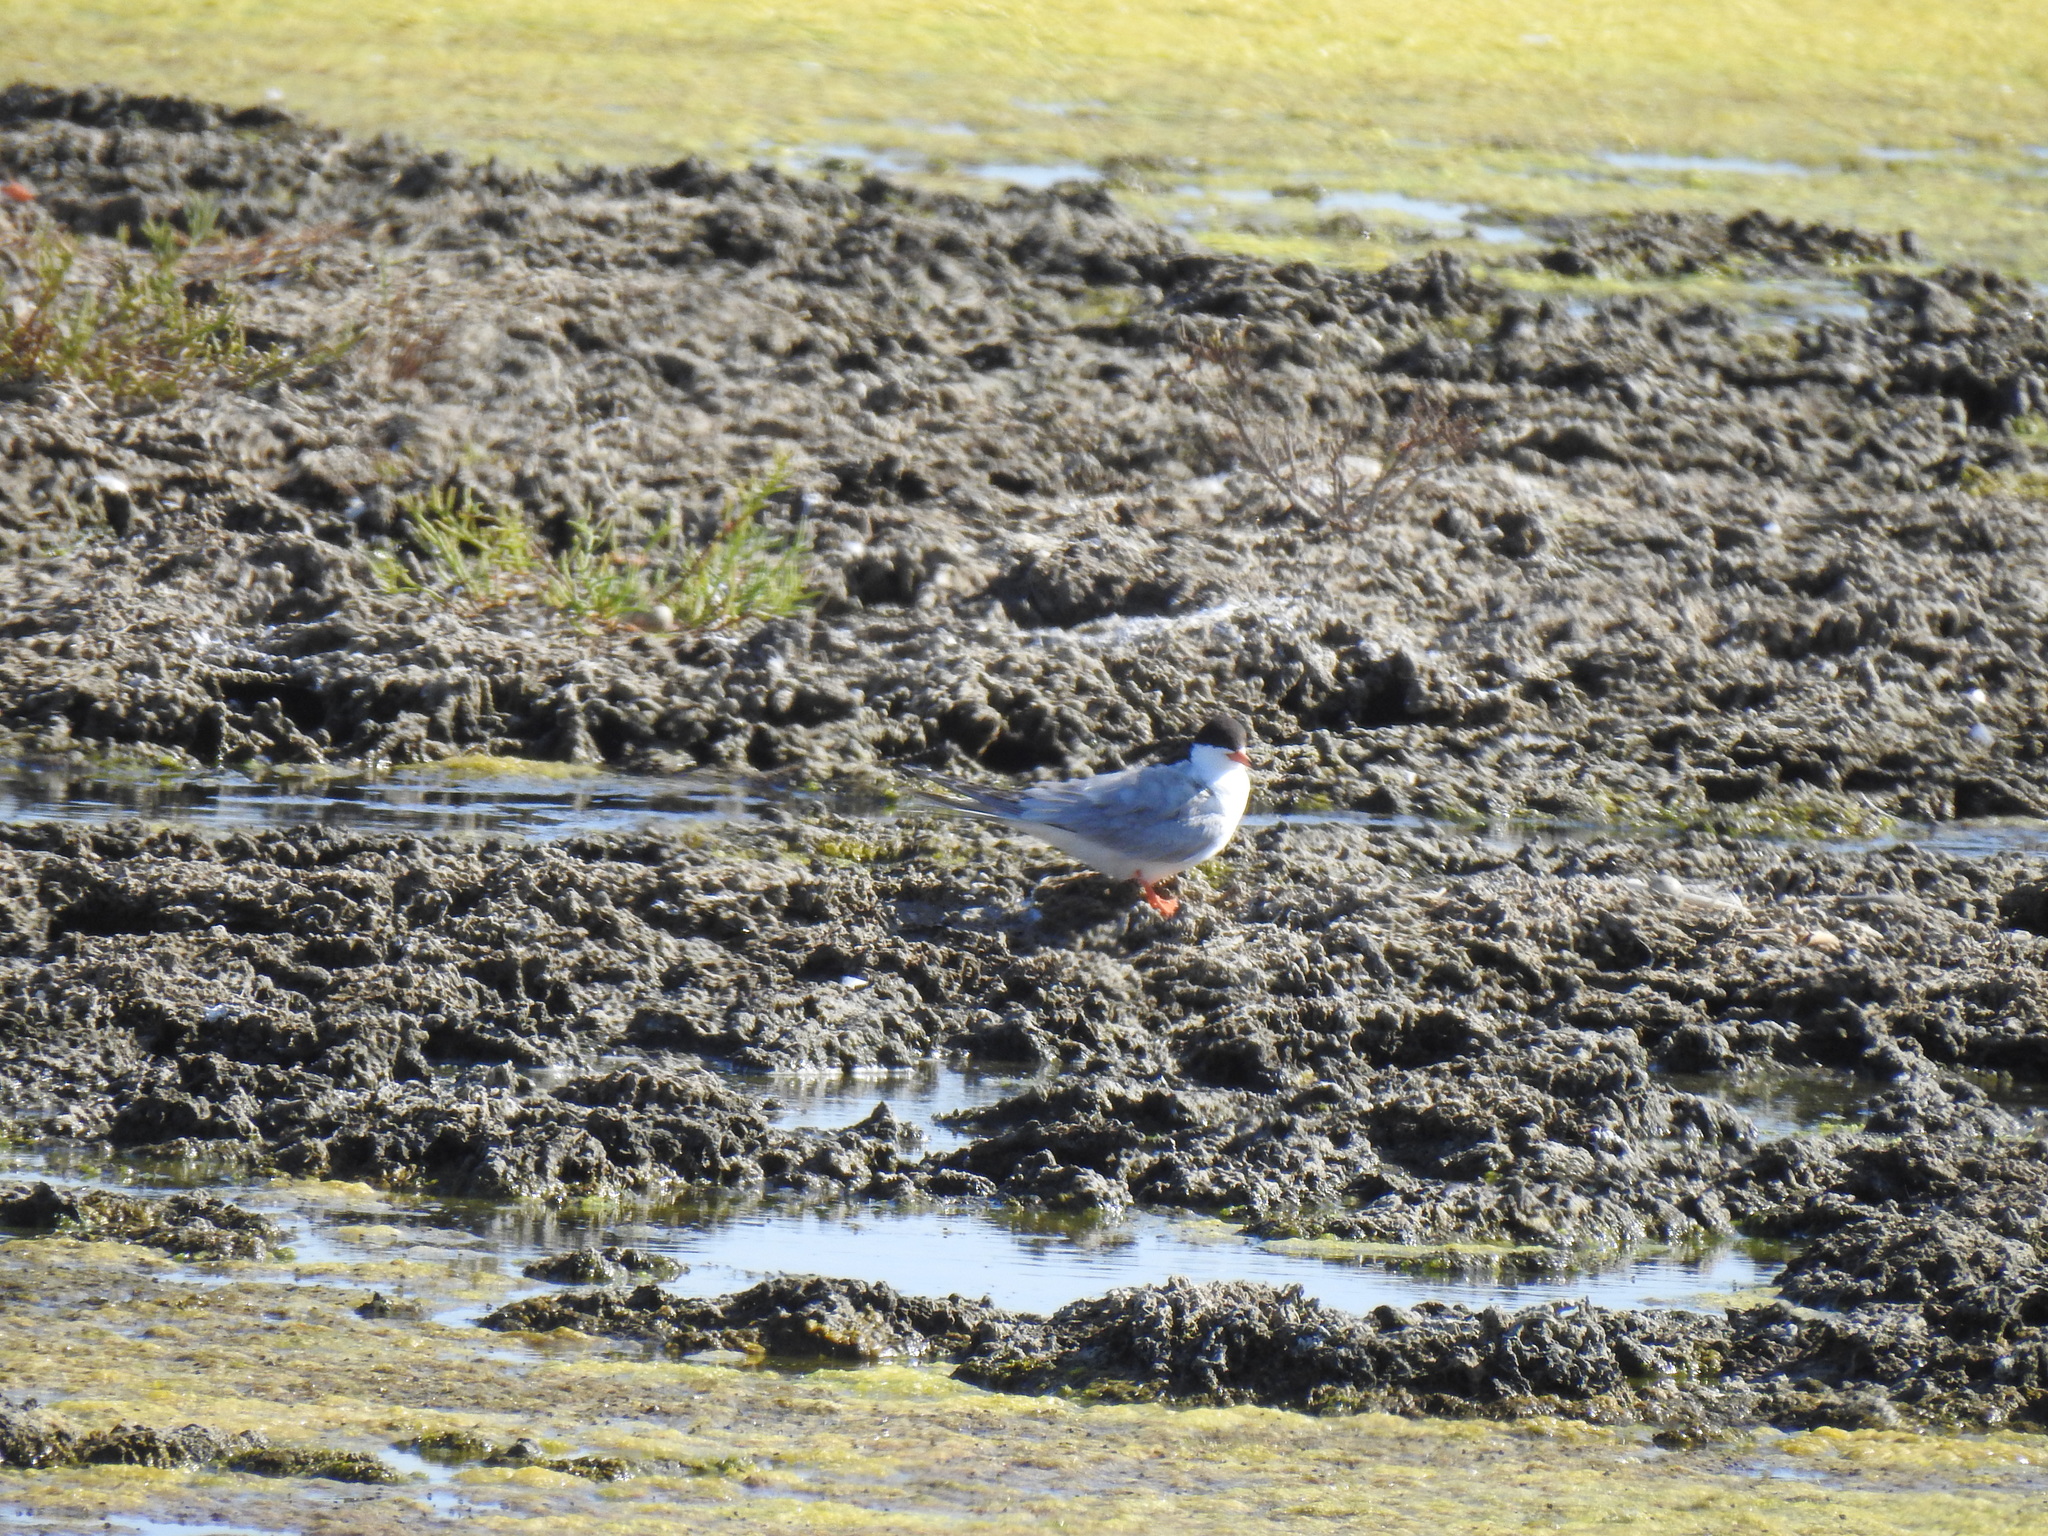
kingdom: Animalia
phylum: Chordata
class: Aves
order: Charadriiformes
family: Laridae
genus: Sterna
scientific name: Sterna forsteri
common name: Forster's tern
